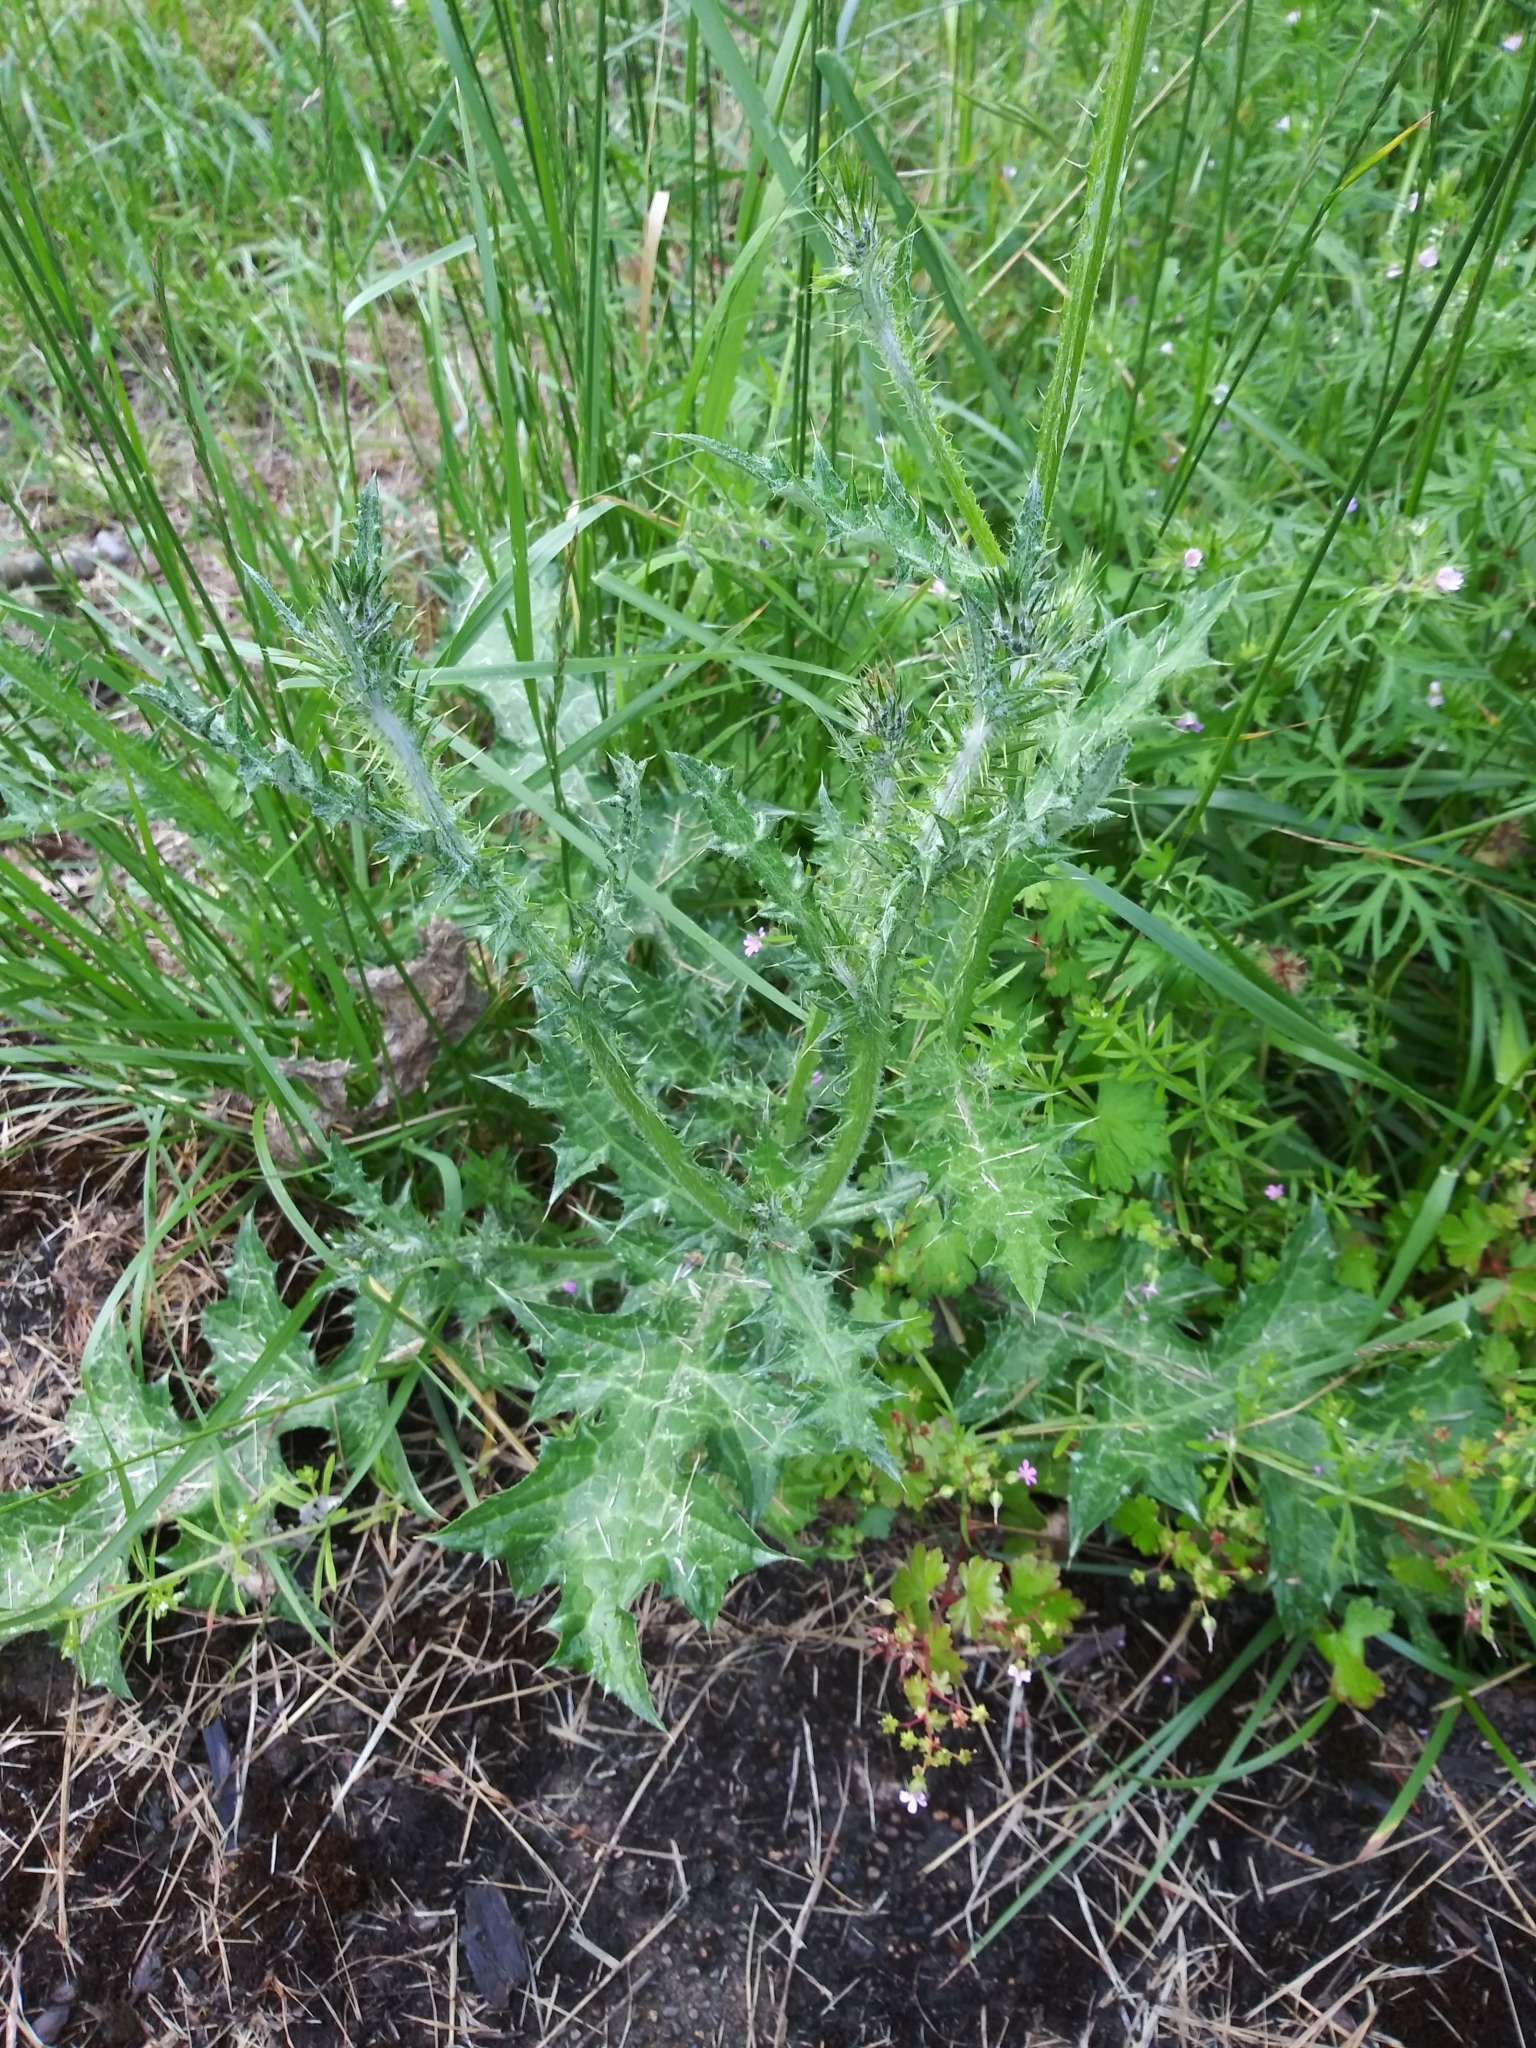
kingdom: Plantae
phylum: Tracheophyta
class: Magnoliopsida
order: Asterales
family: Asteraceae
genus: Carduus
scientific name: Carduus pycnocephalus
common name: Plymouth thistle
